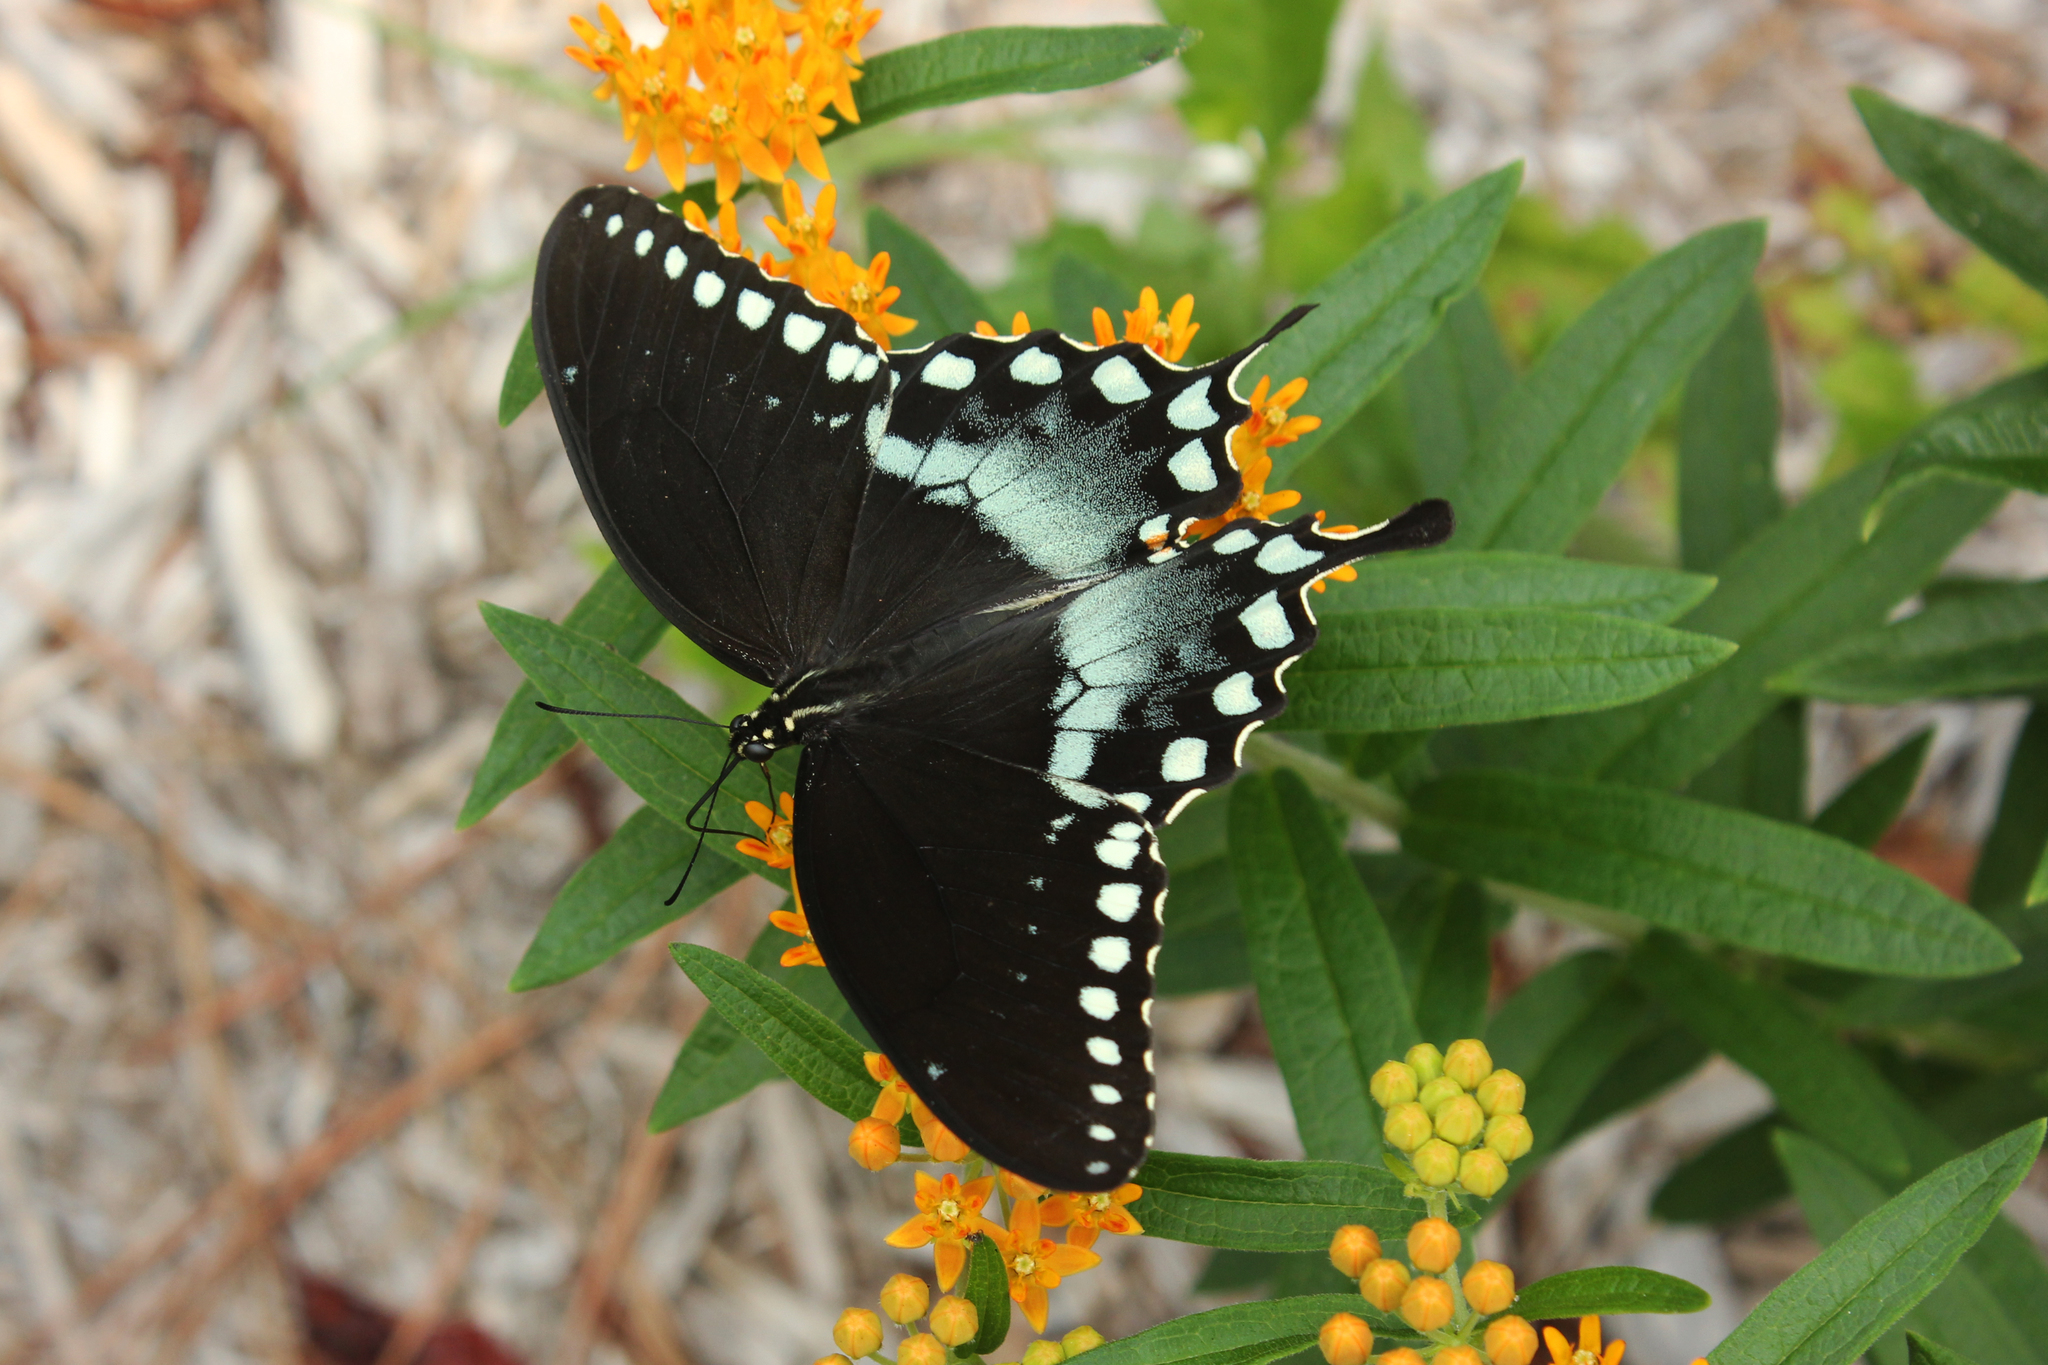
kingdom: Animalia
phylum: Arthropoda
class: Insecta
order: Lepidoptera
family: Papilionidae
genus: Papilio
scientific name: Papilio troilus
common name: Spicebush swallowtail
